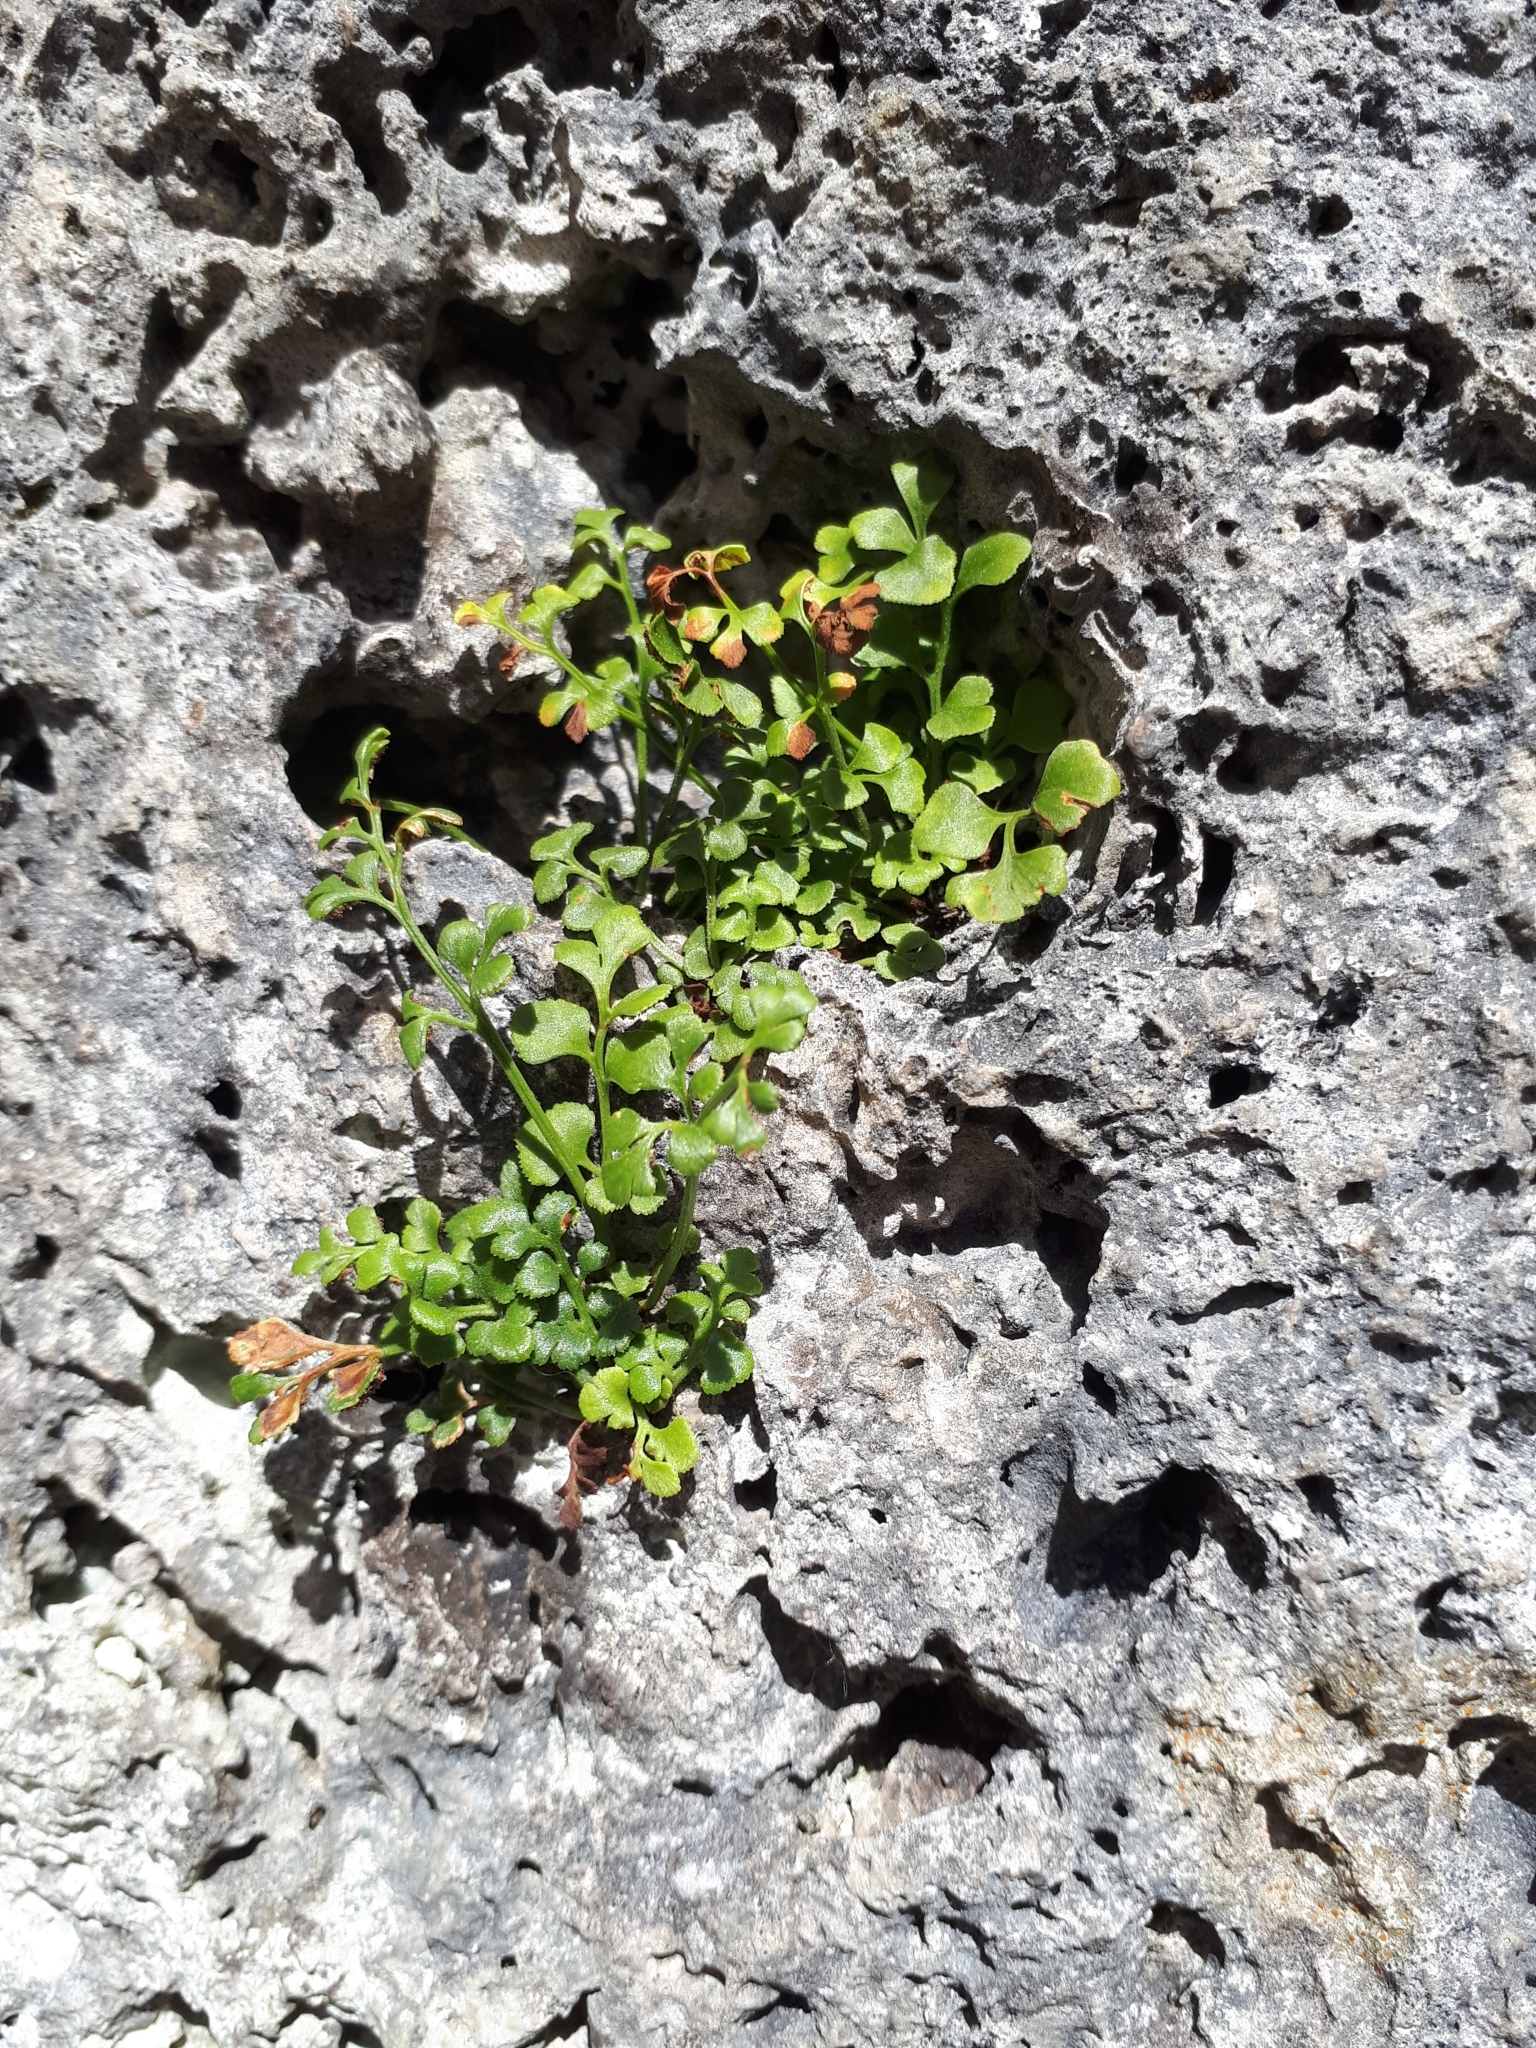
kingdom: Plantae
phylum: Tracheophyta
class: Polypodiopsida
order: Polypodiales
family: Aspleniaceae
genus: Asplenium
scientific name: Asplenium ruta-muraria
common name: Wall-rue
